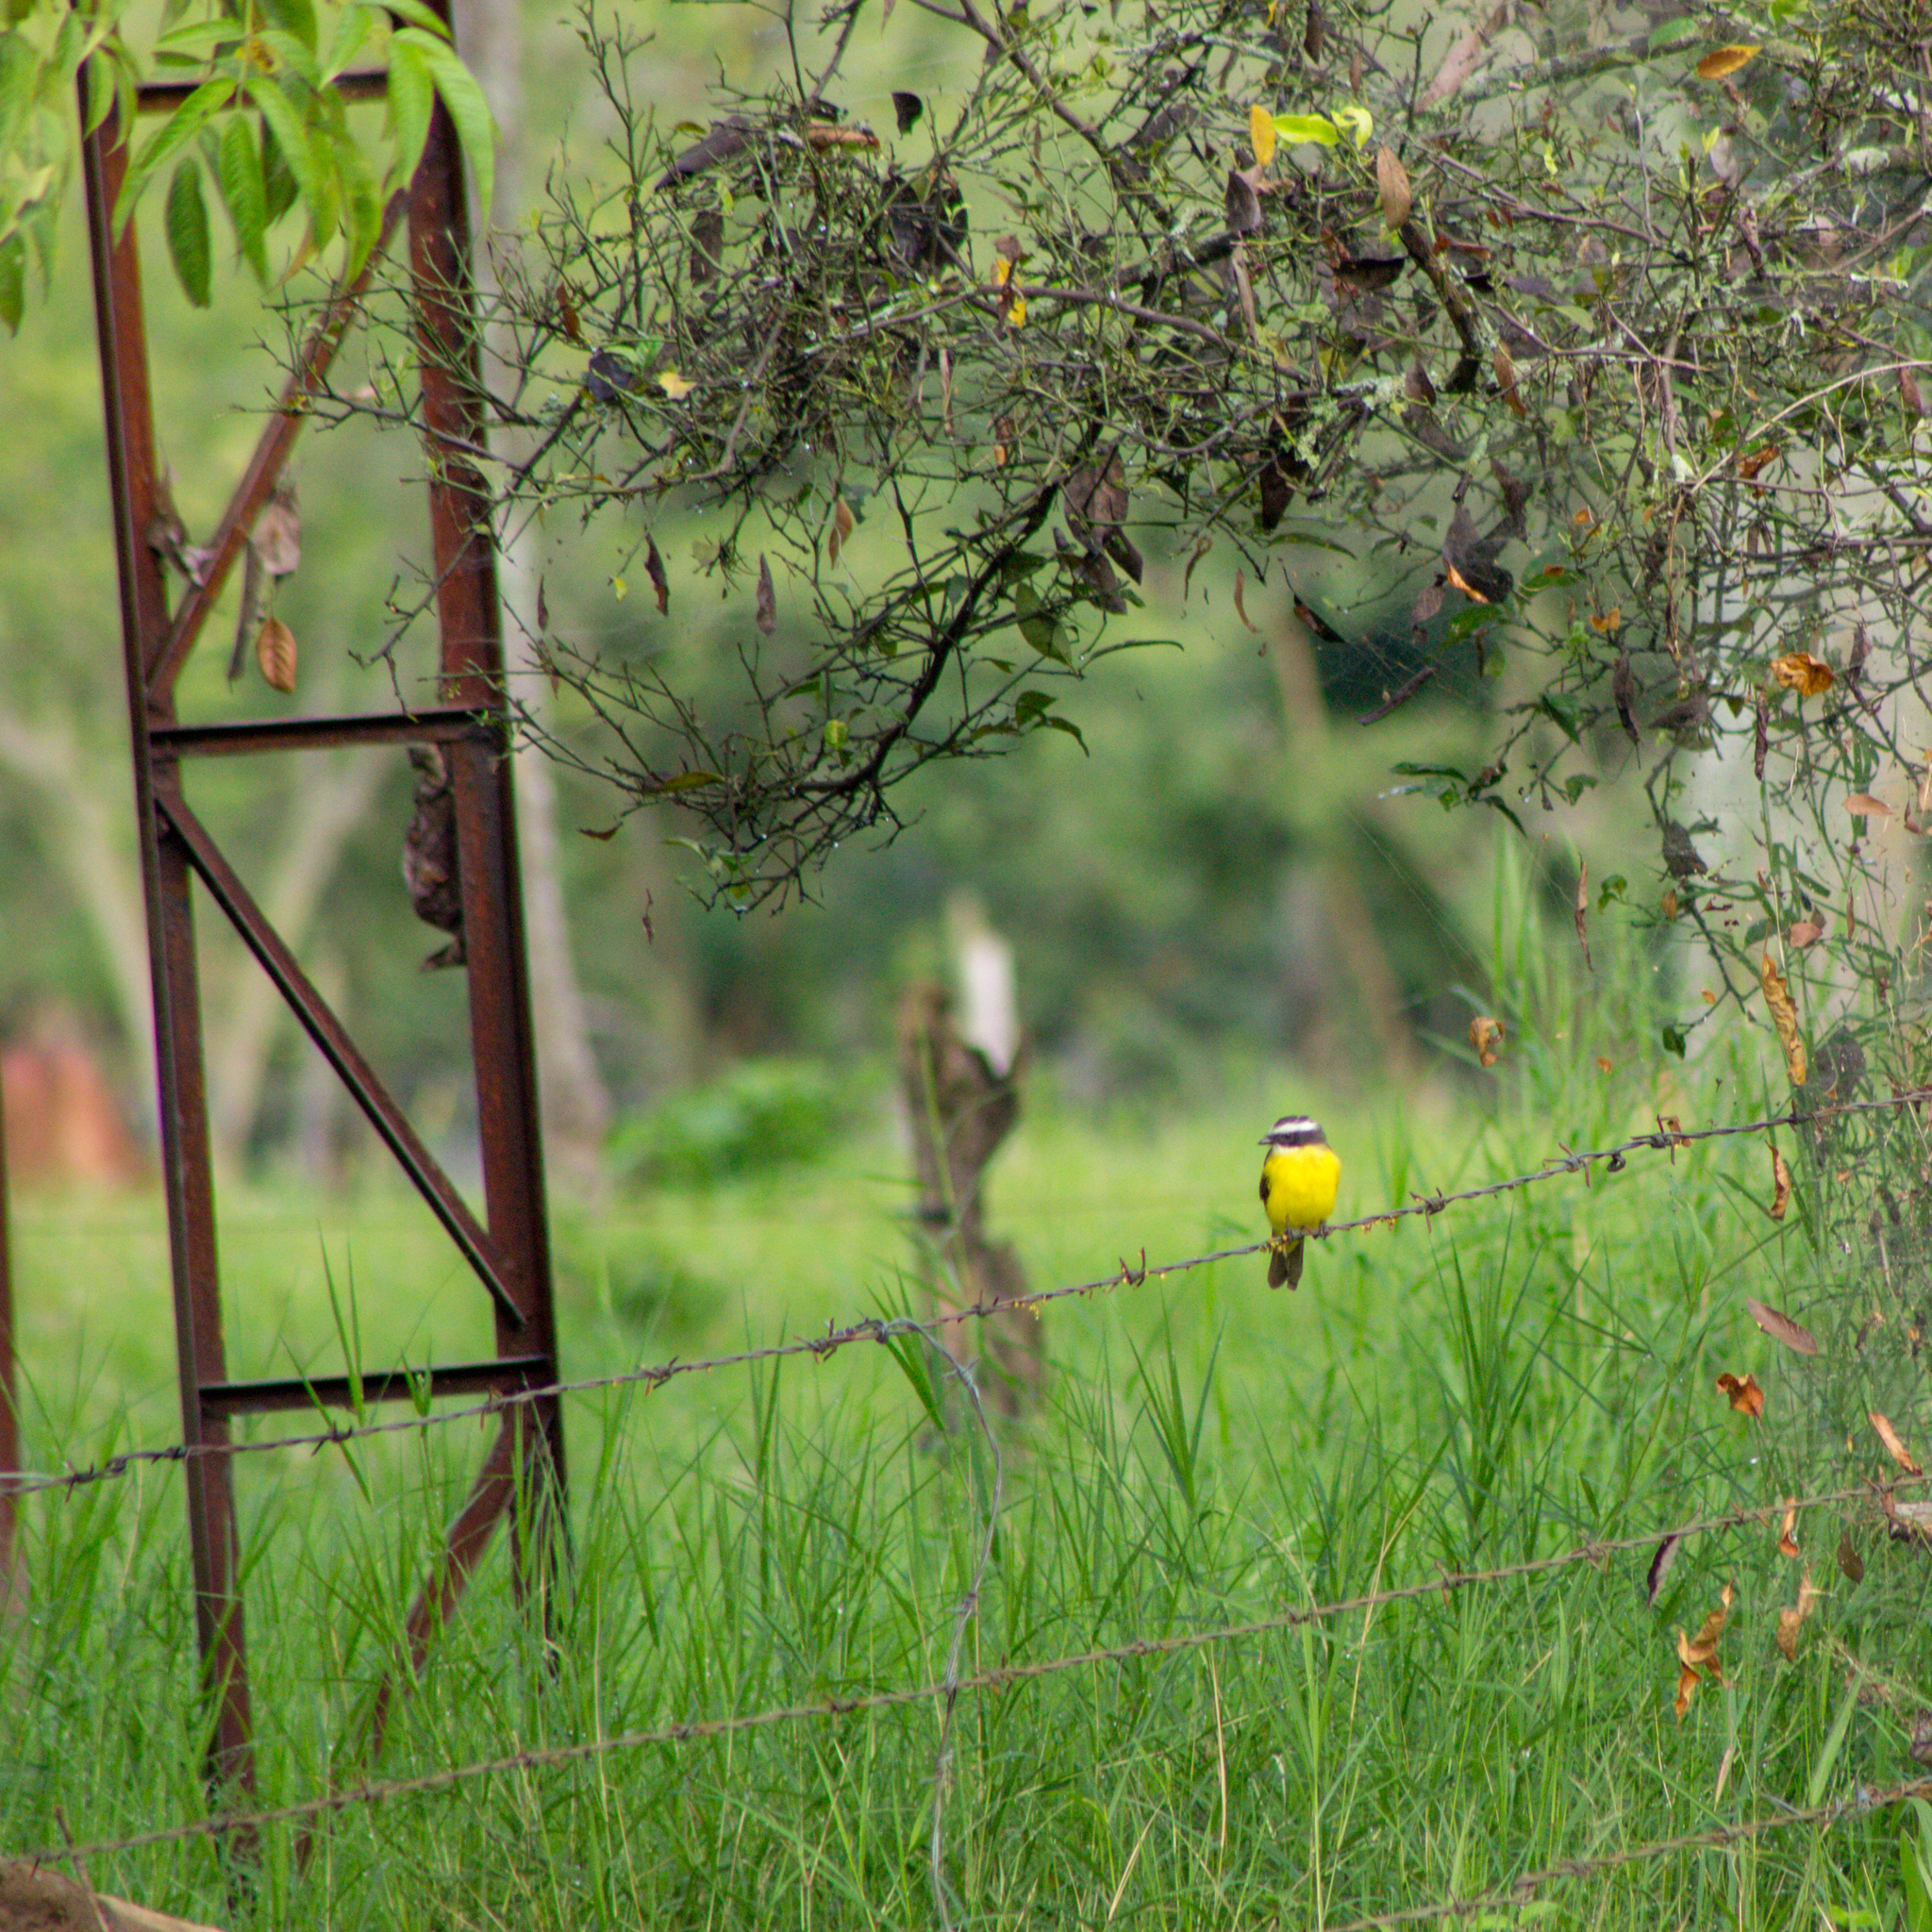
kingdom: Animalia
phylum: Chordata
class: Aves
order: Passeriformes
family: Tyrannidae
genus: Myiozetetes
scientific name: Myiozetetes cayanensis
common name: Rusty-margined flycatcher
